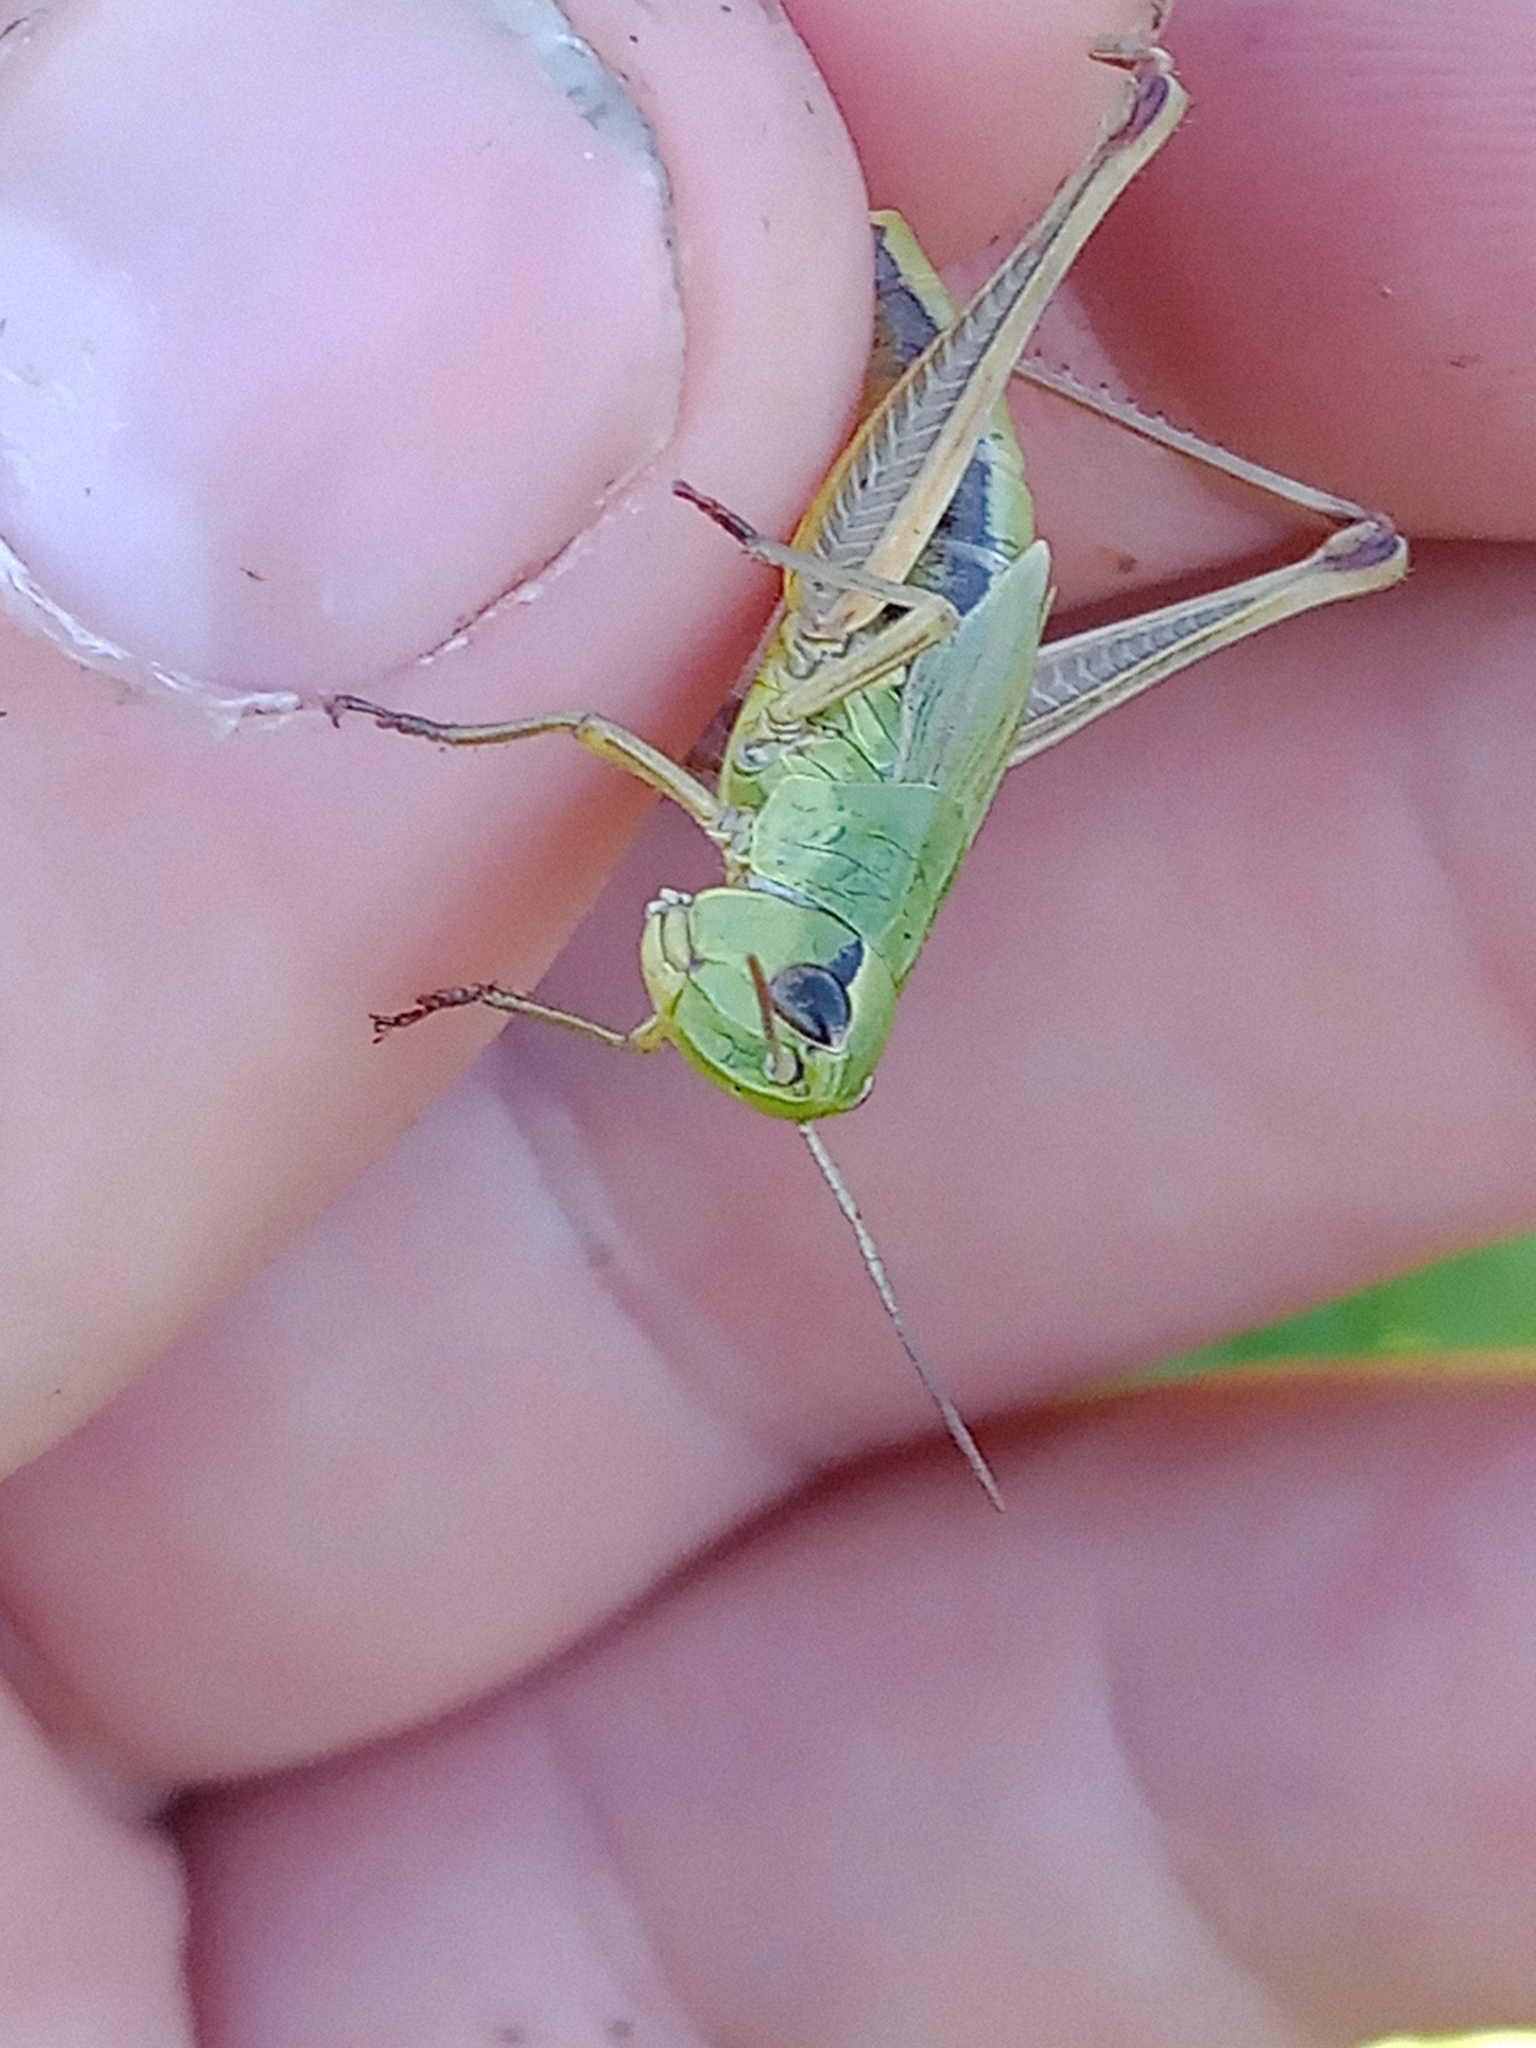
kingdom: Animalia
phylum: Arthropoda
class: Insecta
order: Orthoptera
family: Acrididae
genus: Pseudochorthippus
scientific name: Pseudochorthippus parallelus
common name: Meadow grasshopper
